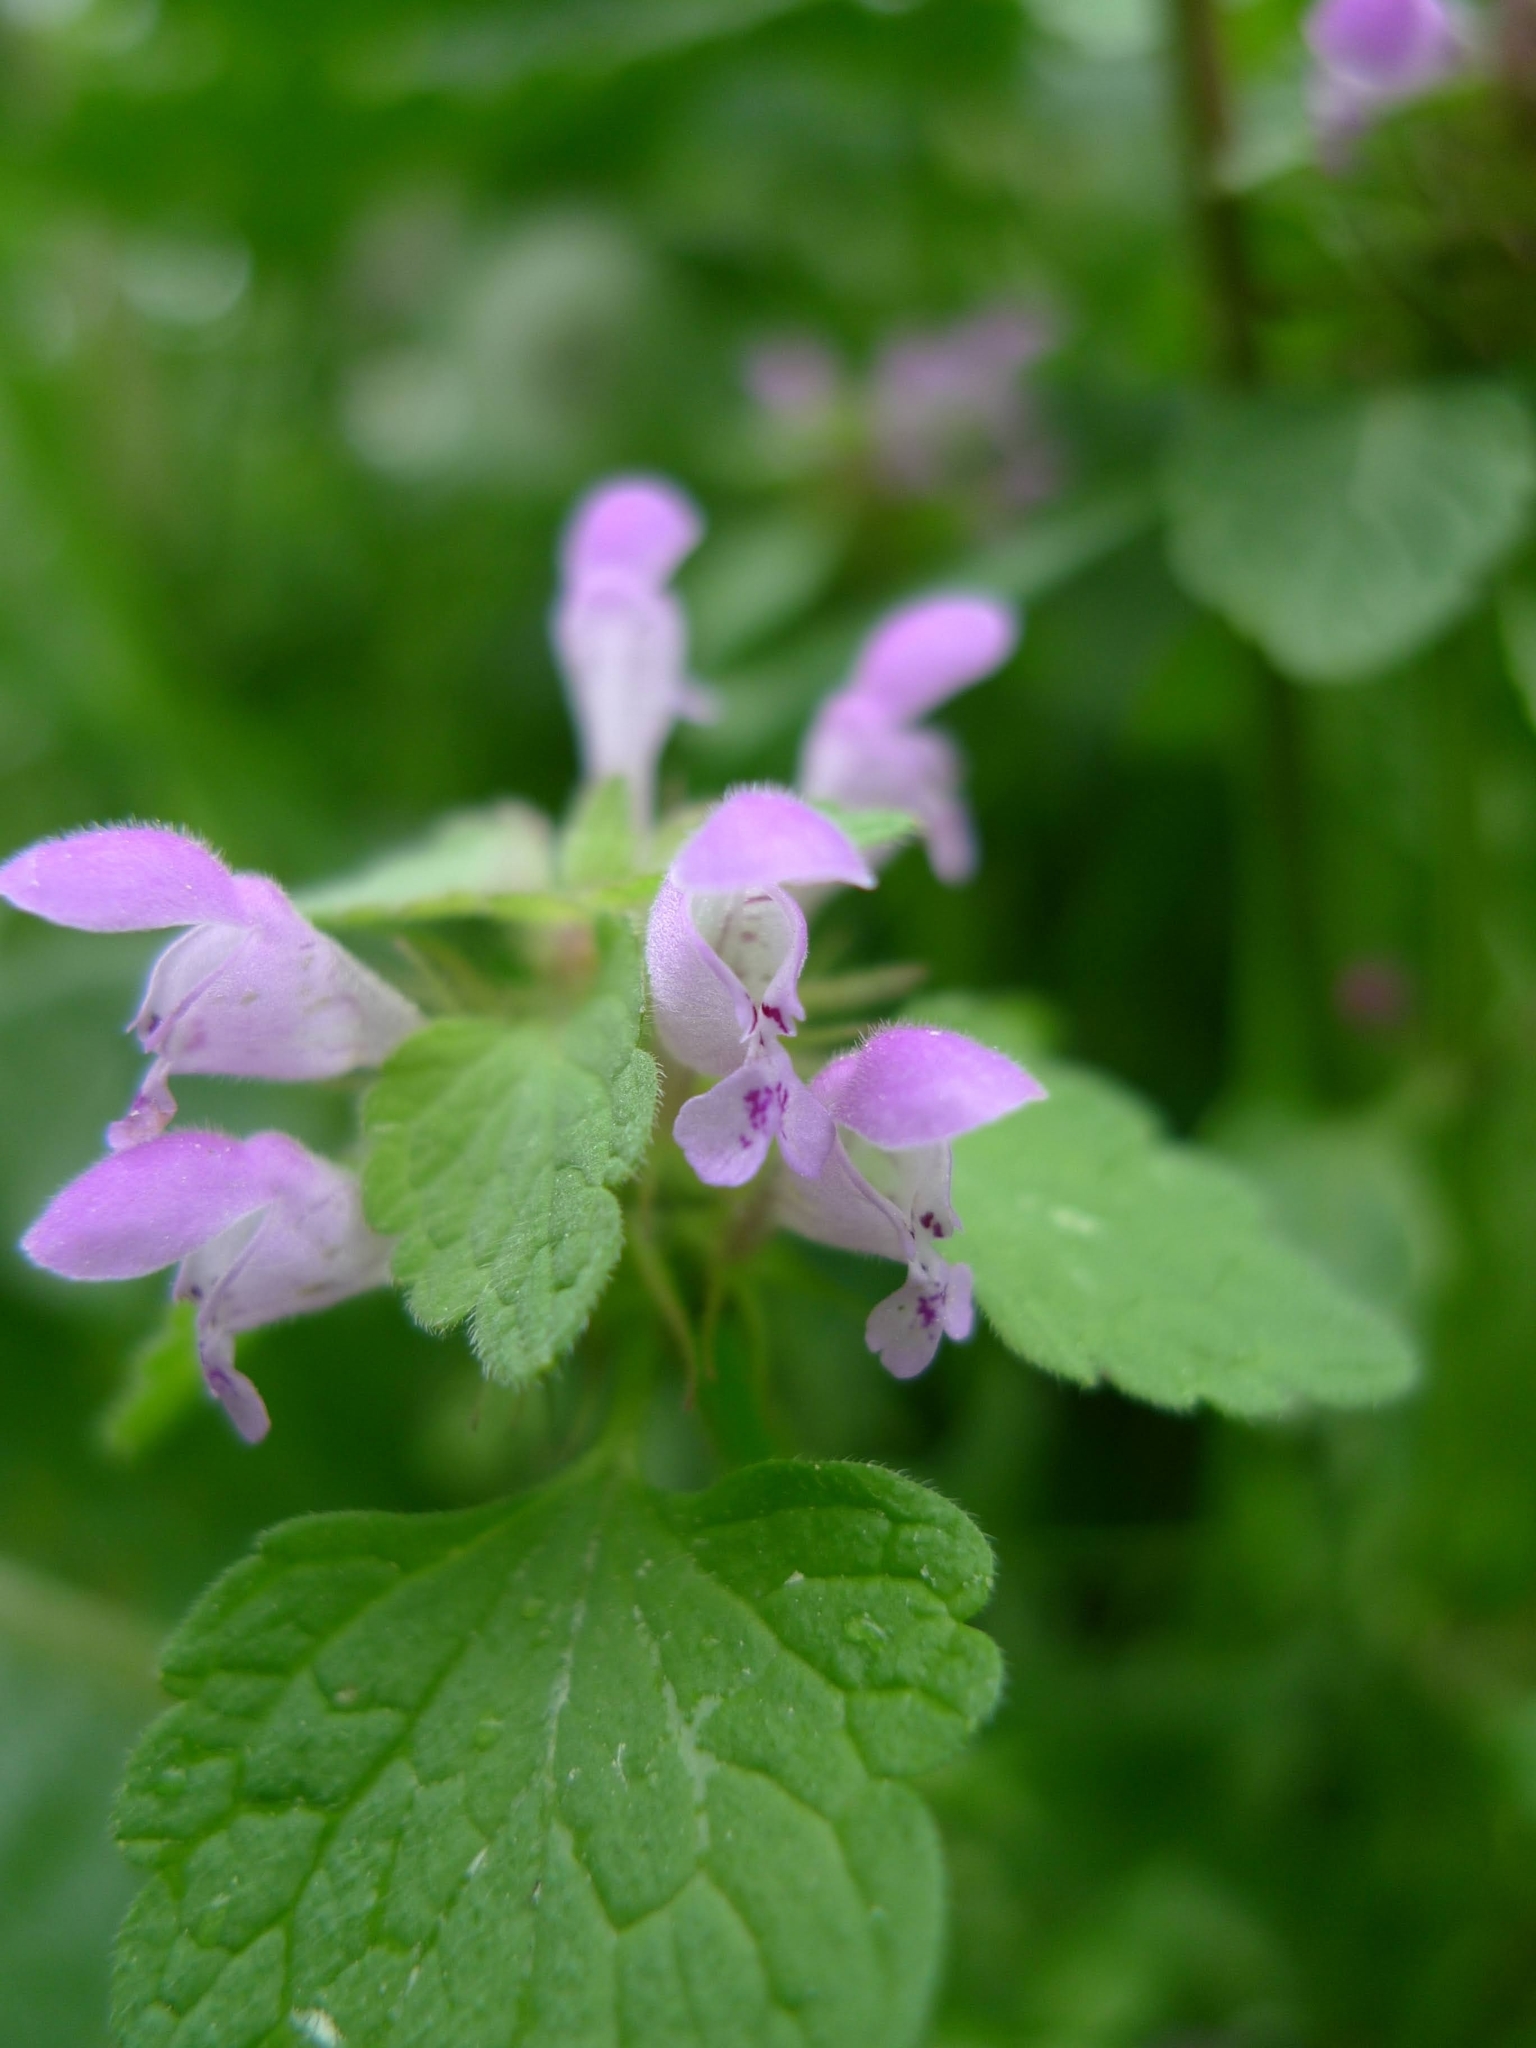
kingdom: Plantae
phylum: Tracheophyta
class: Magnoliopsida
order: Lamiales
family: Lamiaceae
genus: Lamium
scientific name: Lamium purpureum
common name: Red dead-nettle
